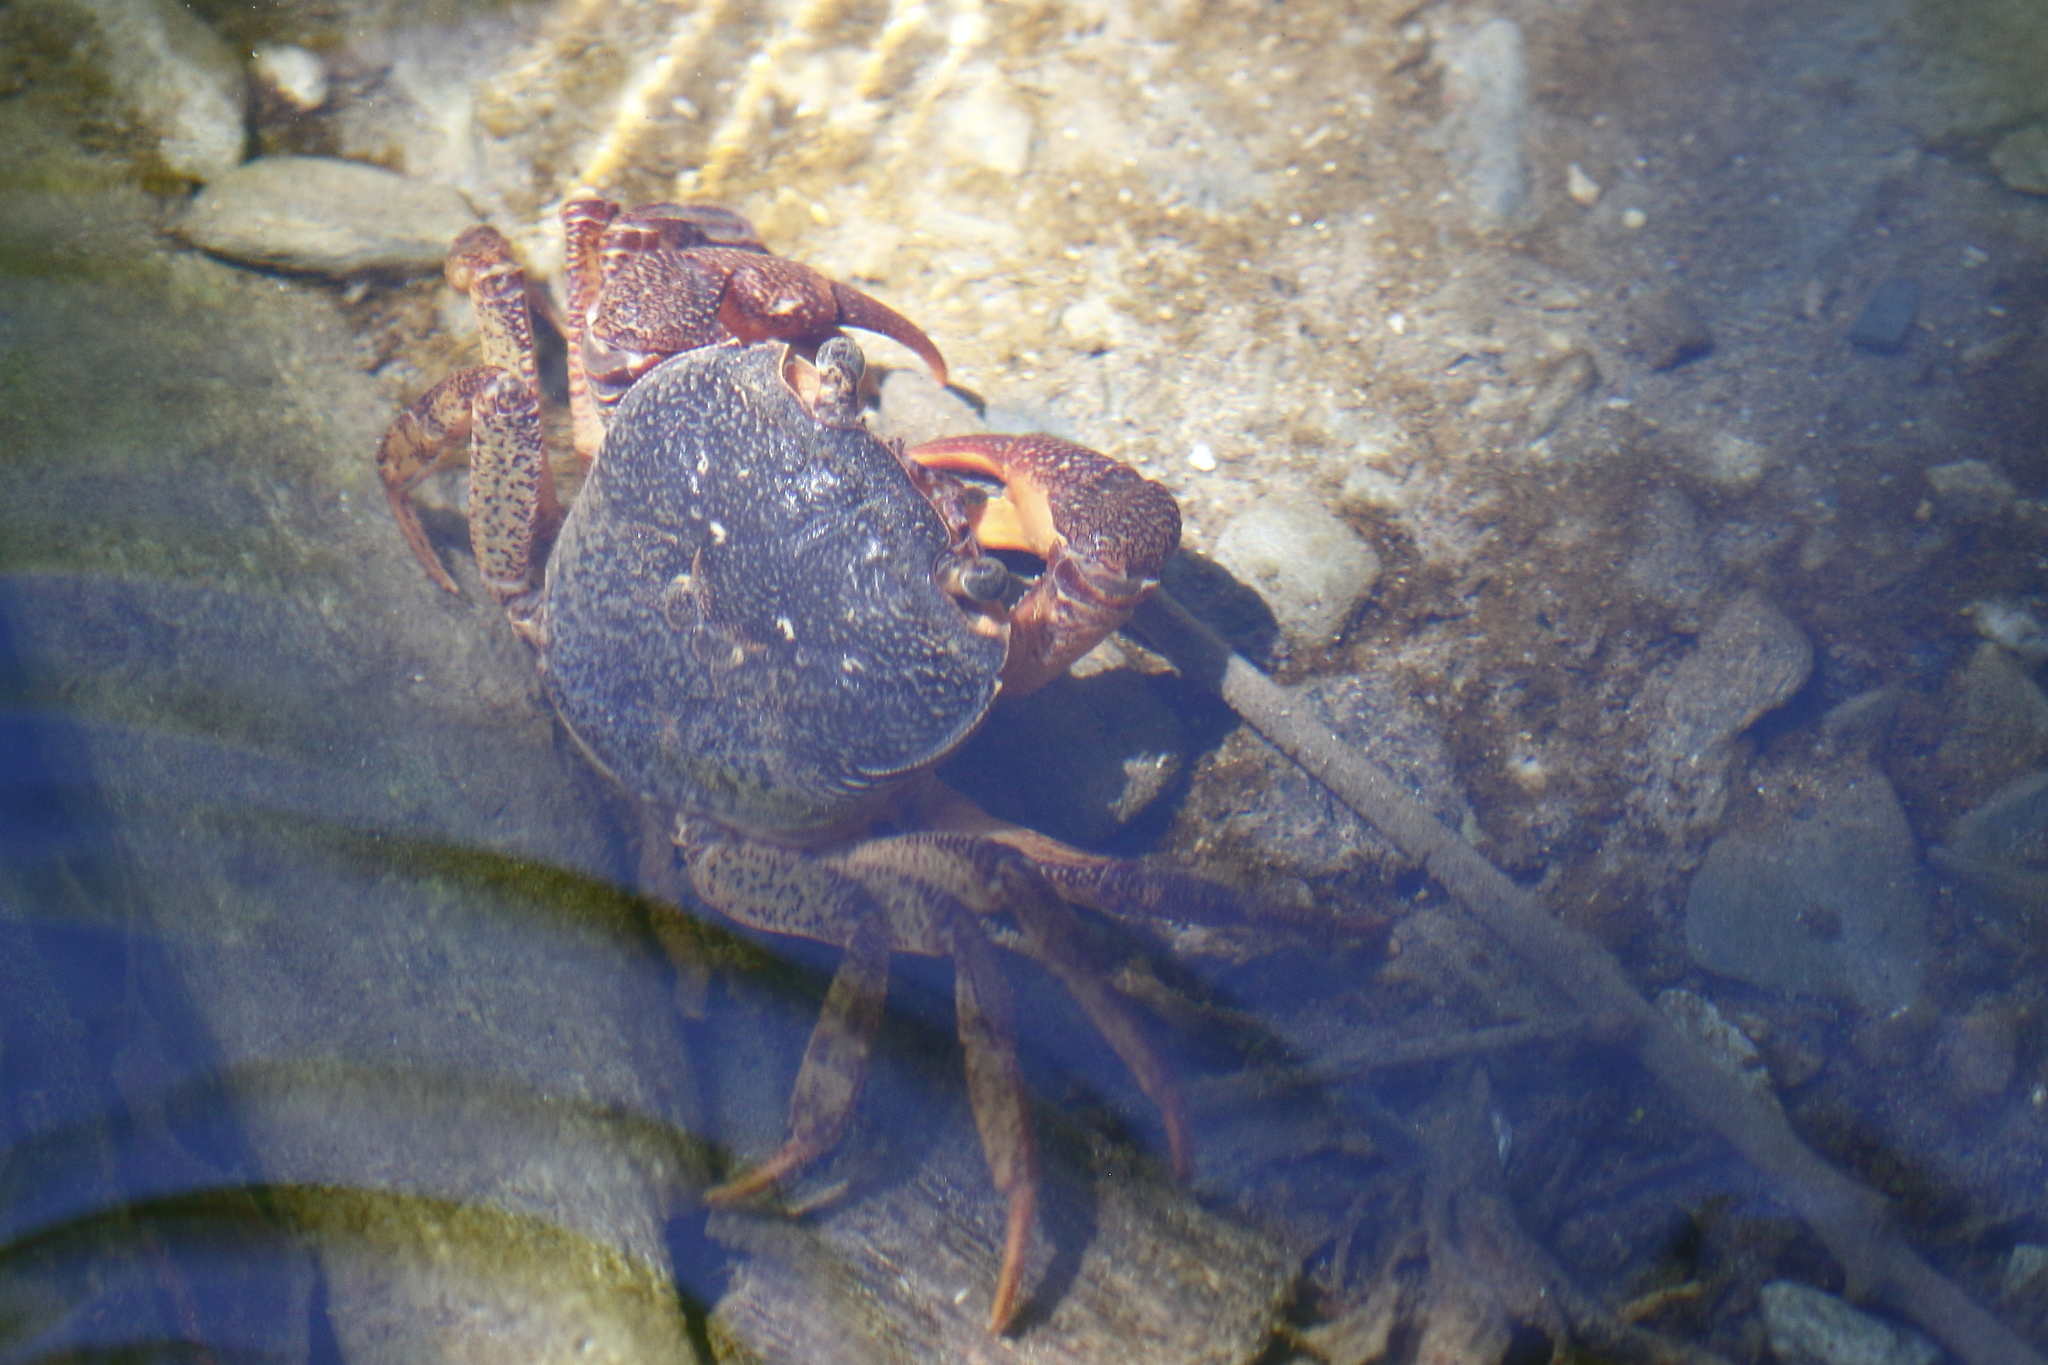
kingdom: Animalia
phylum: Arthropoda
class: Malacostraca
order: Decapoda
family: Potamidae
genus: Candidiopotamon
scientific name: Candidiopotamon rathbuni
